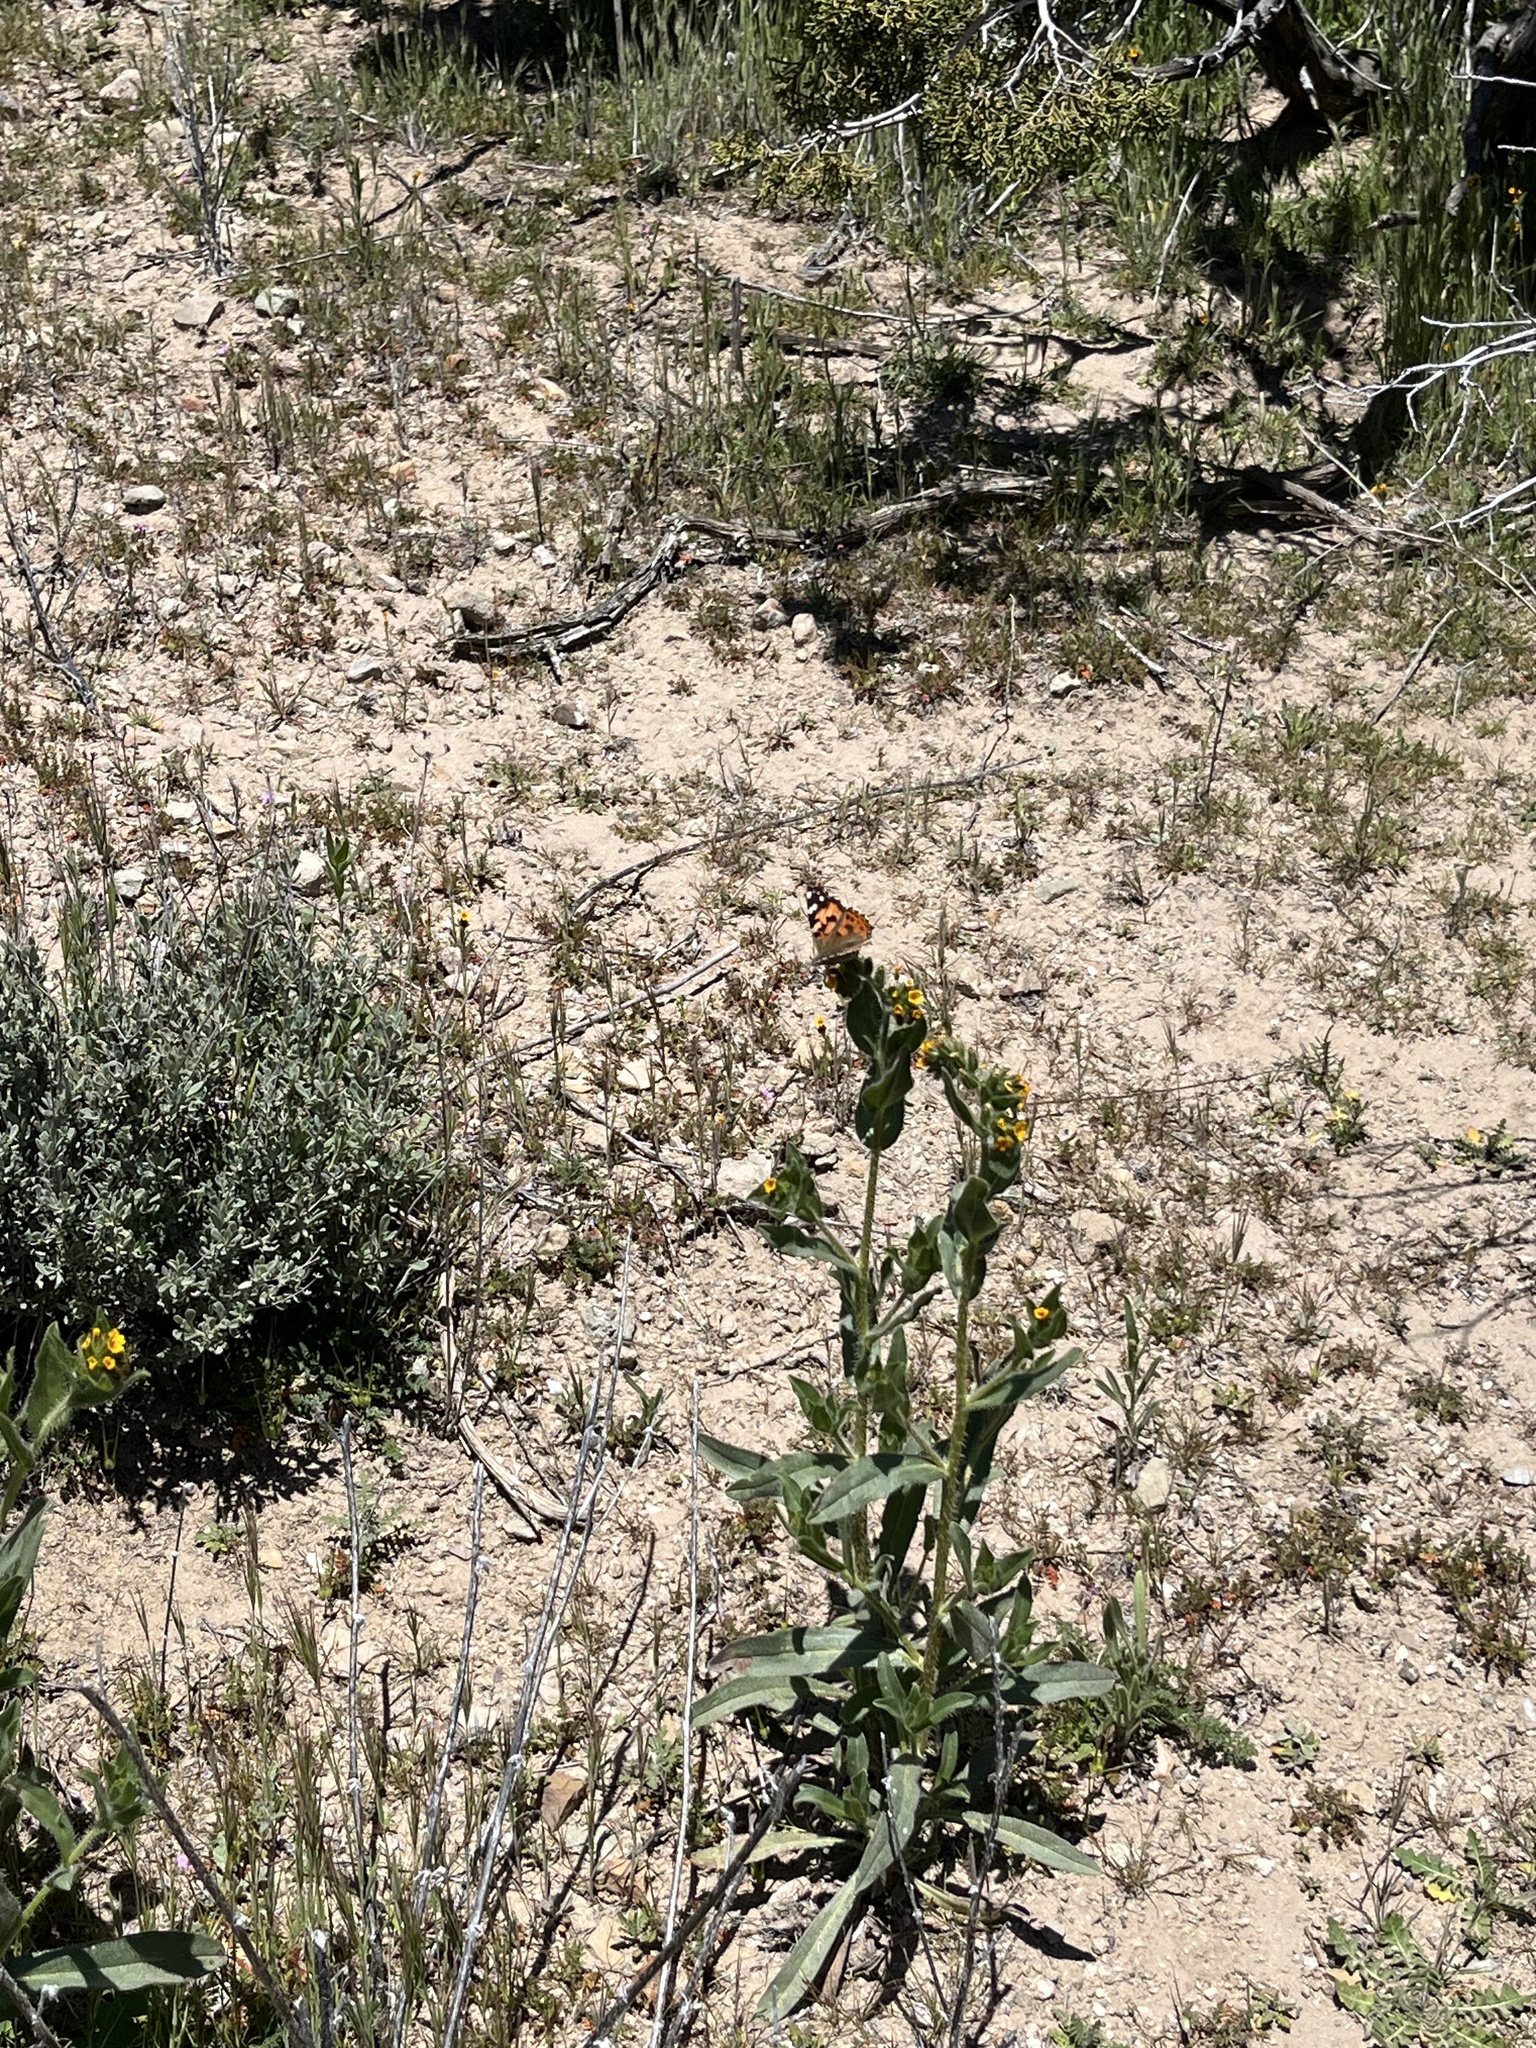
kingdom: Animalia
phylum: Arthropoda
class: Insecta
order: Lepidoptera
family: Nymphalidae
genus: Vanessa
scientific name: Vanessa cardui
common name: Painted lady
